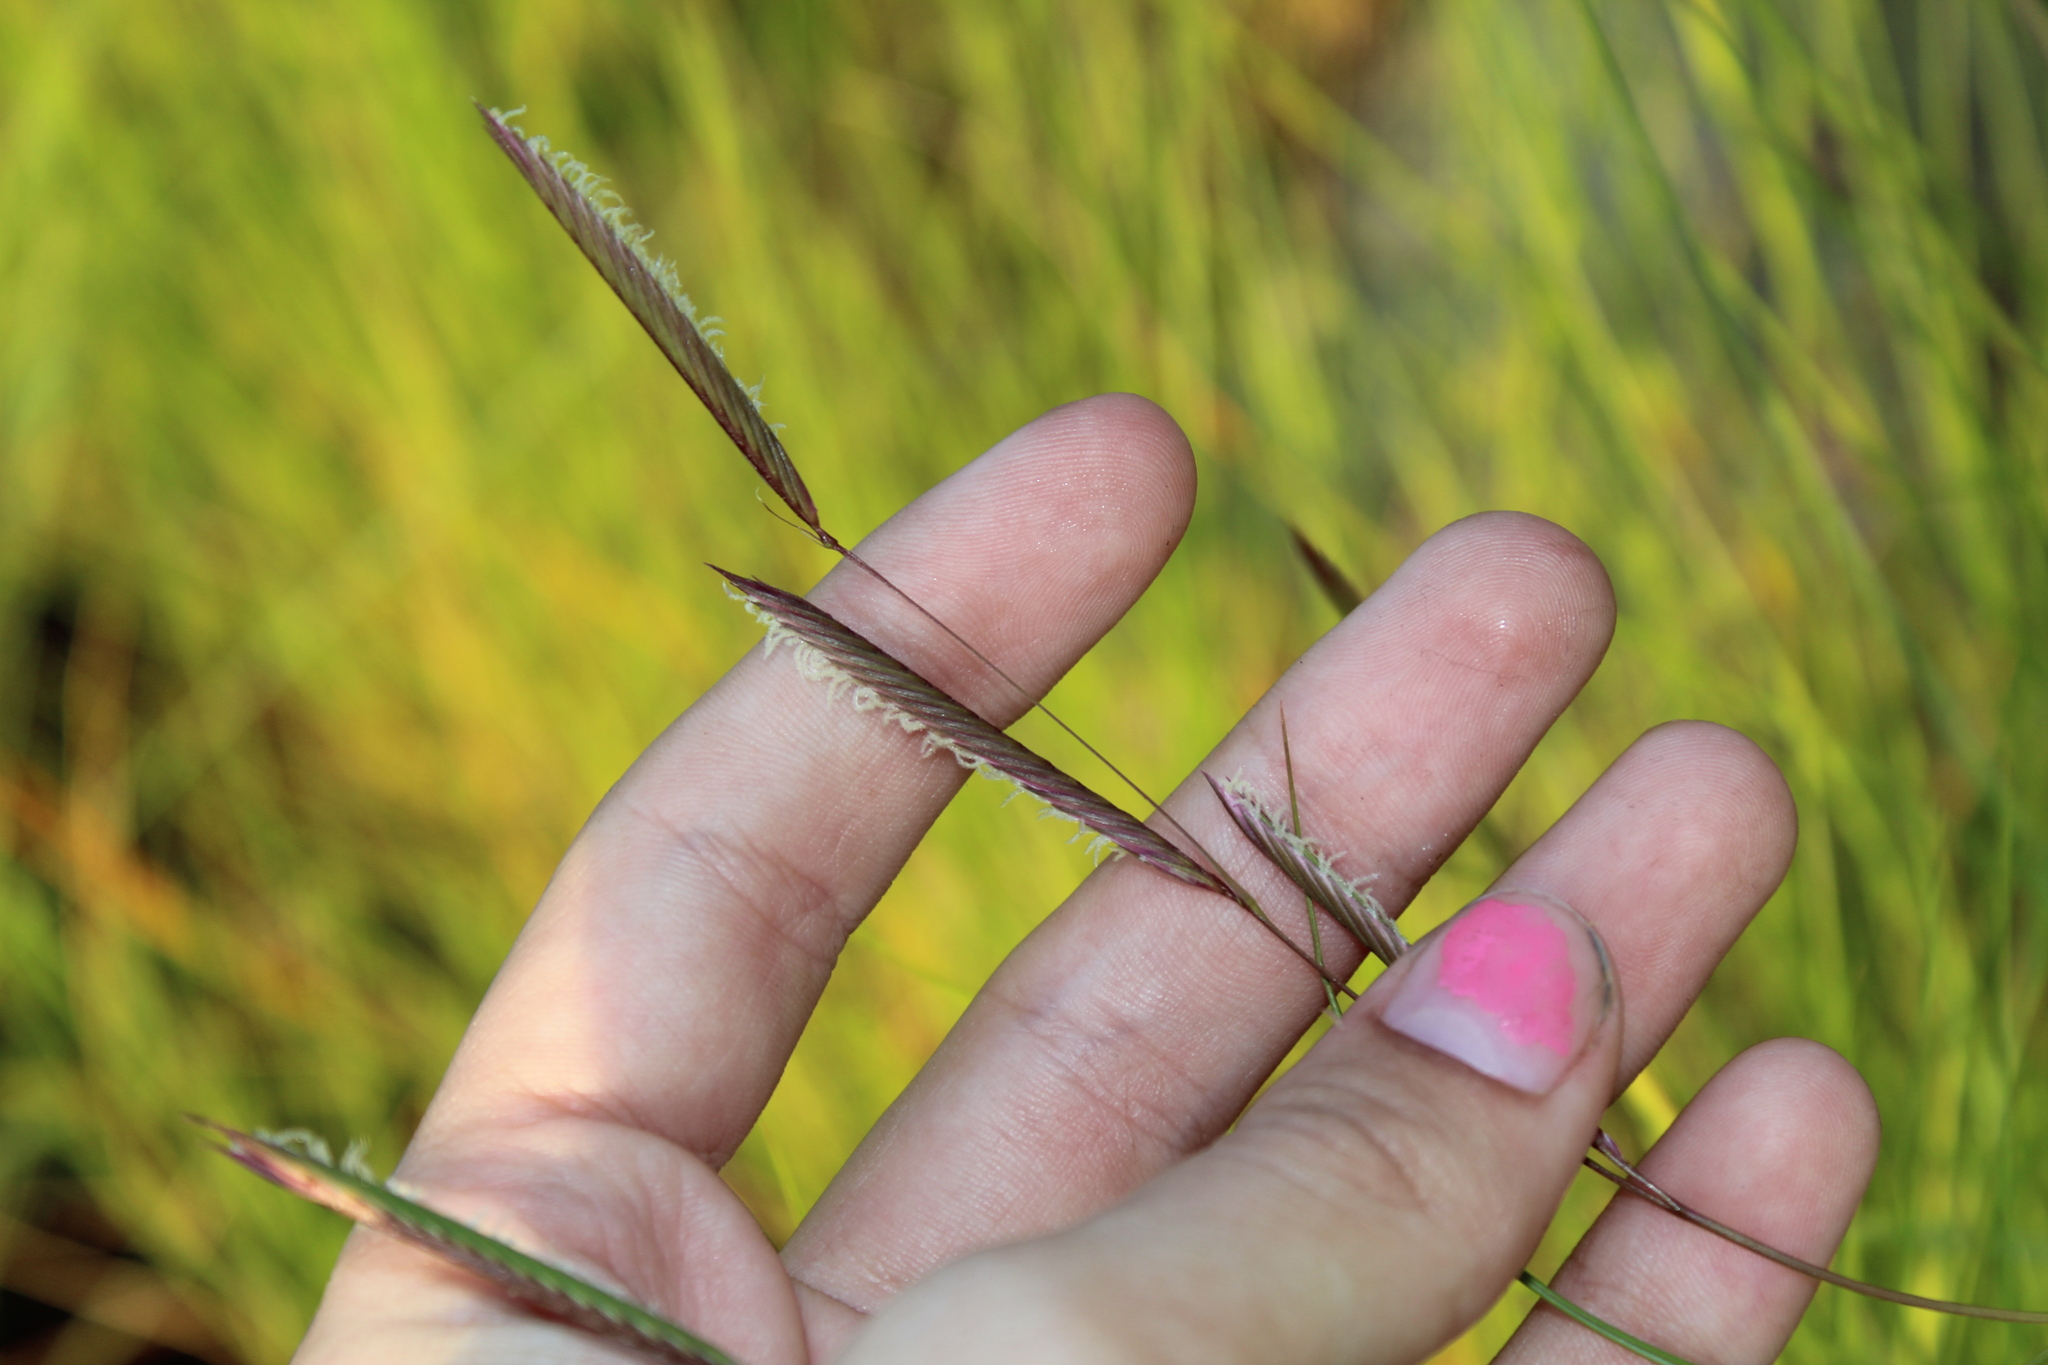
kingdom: Plantae
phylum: Tracheophyta
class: Liliopsida
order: Poales
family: Poaceae
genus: Sporobolus
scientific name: Sporobolus pumilus
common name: Highwater grass
